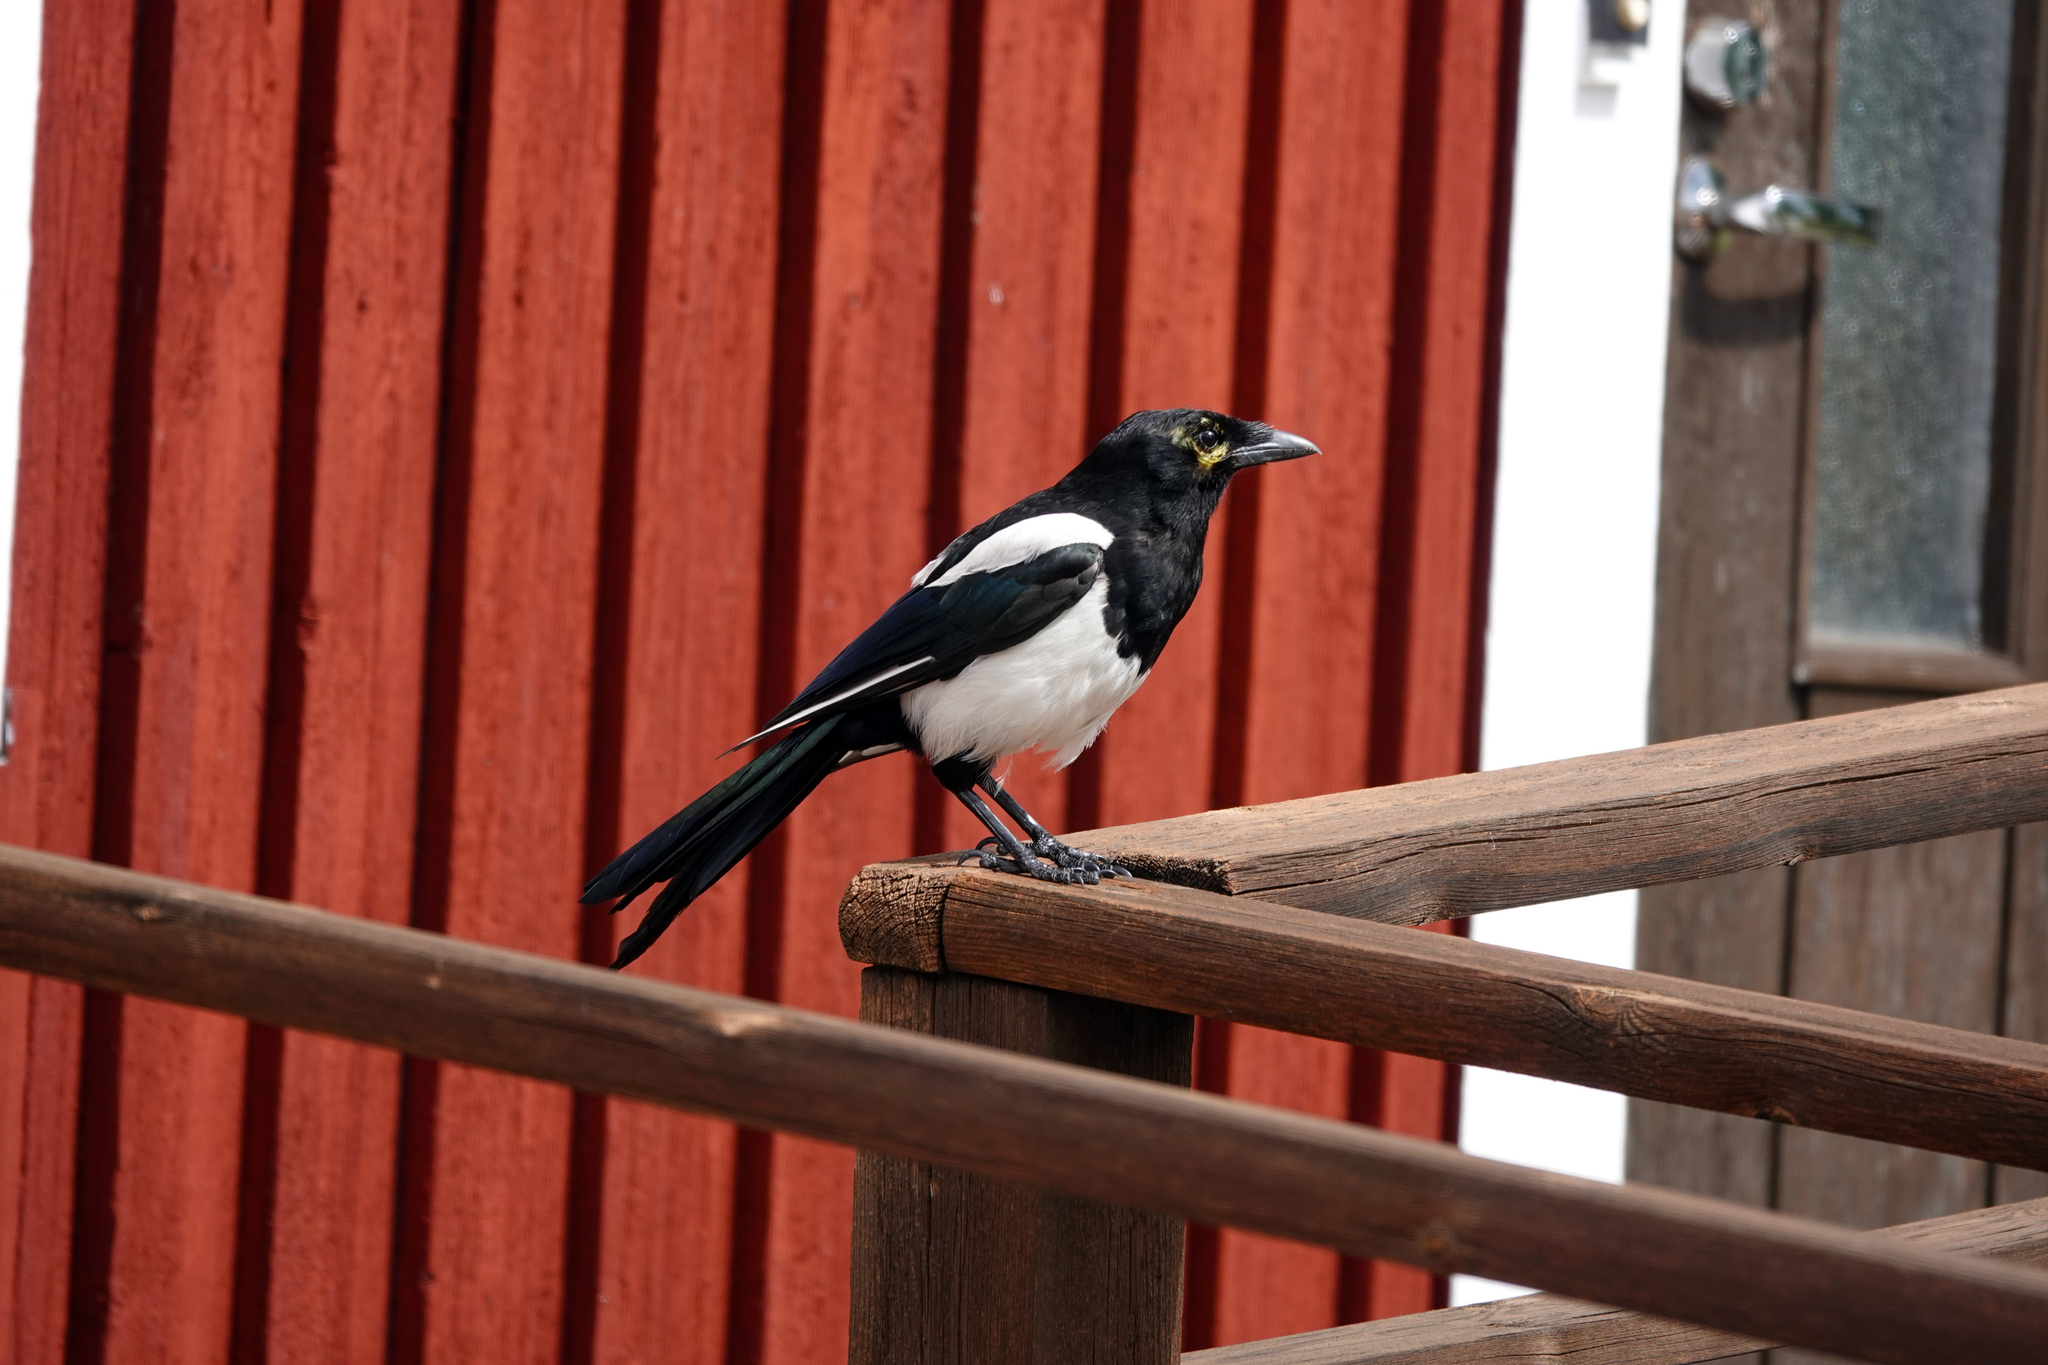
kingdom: Animalia
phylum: Chordata
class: Aves
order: Passeriformes
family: Corvidae
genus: Pica
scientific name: Pica pica
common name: Eurasian magpie
